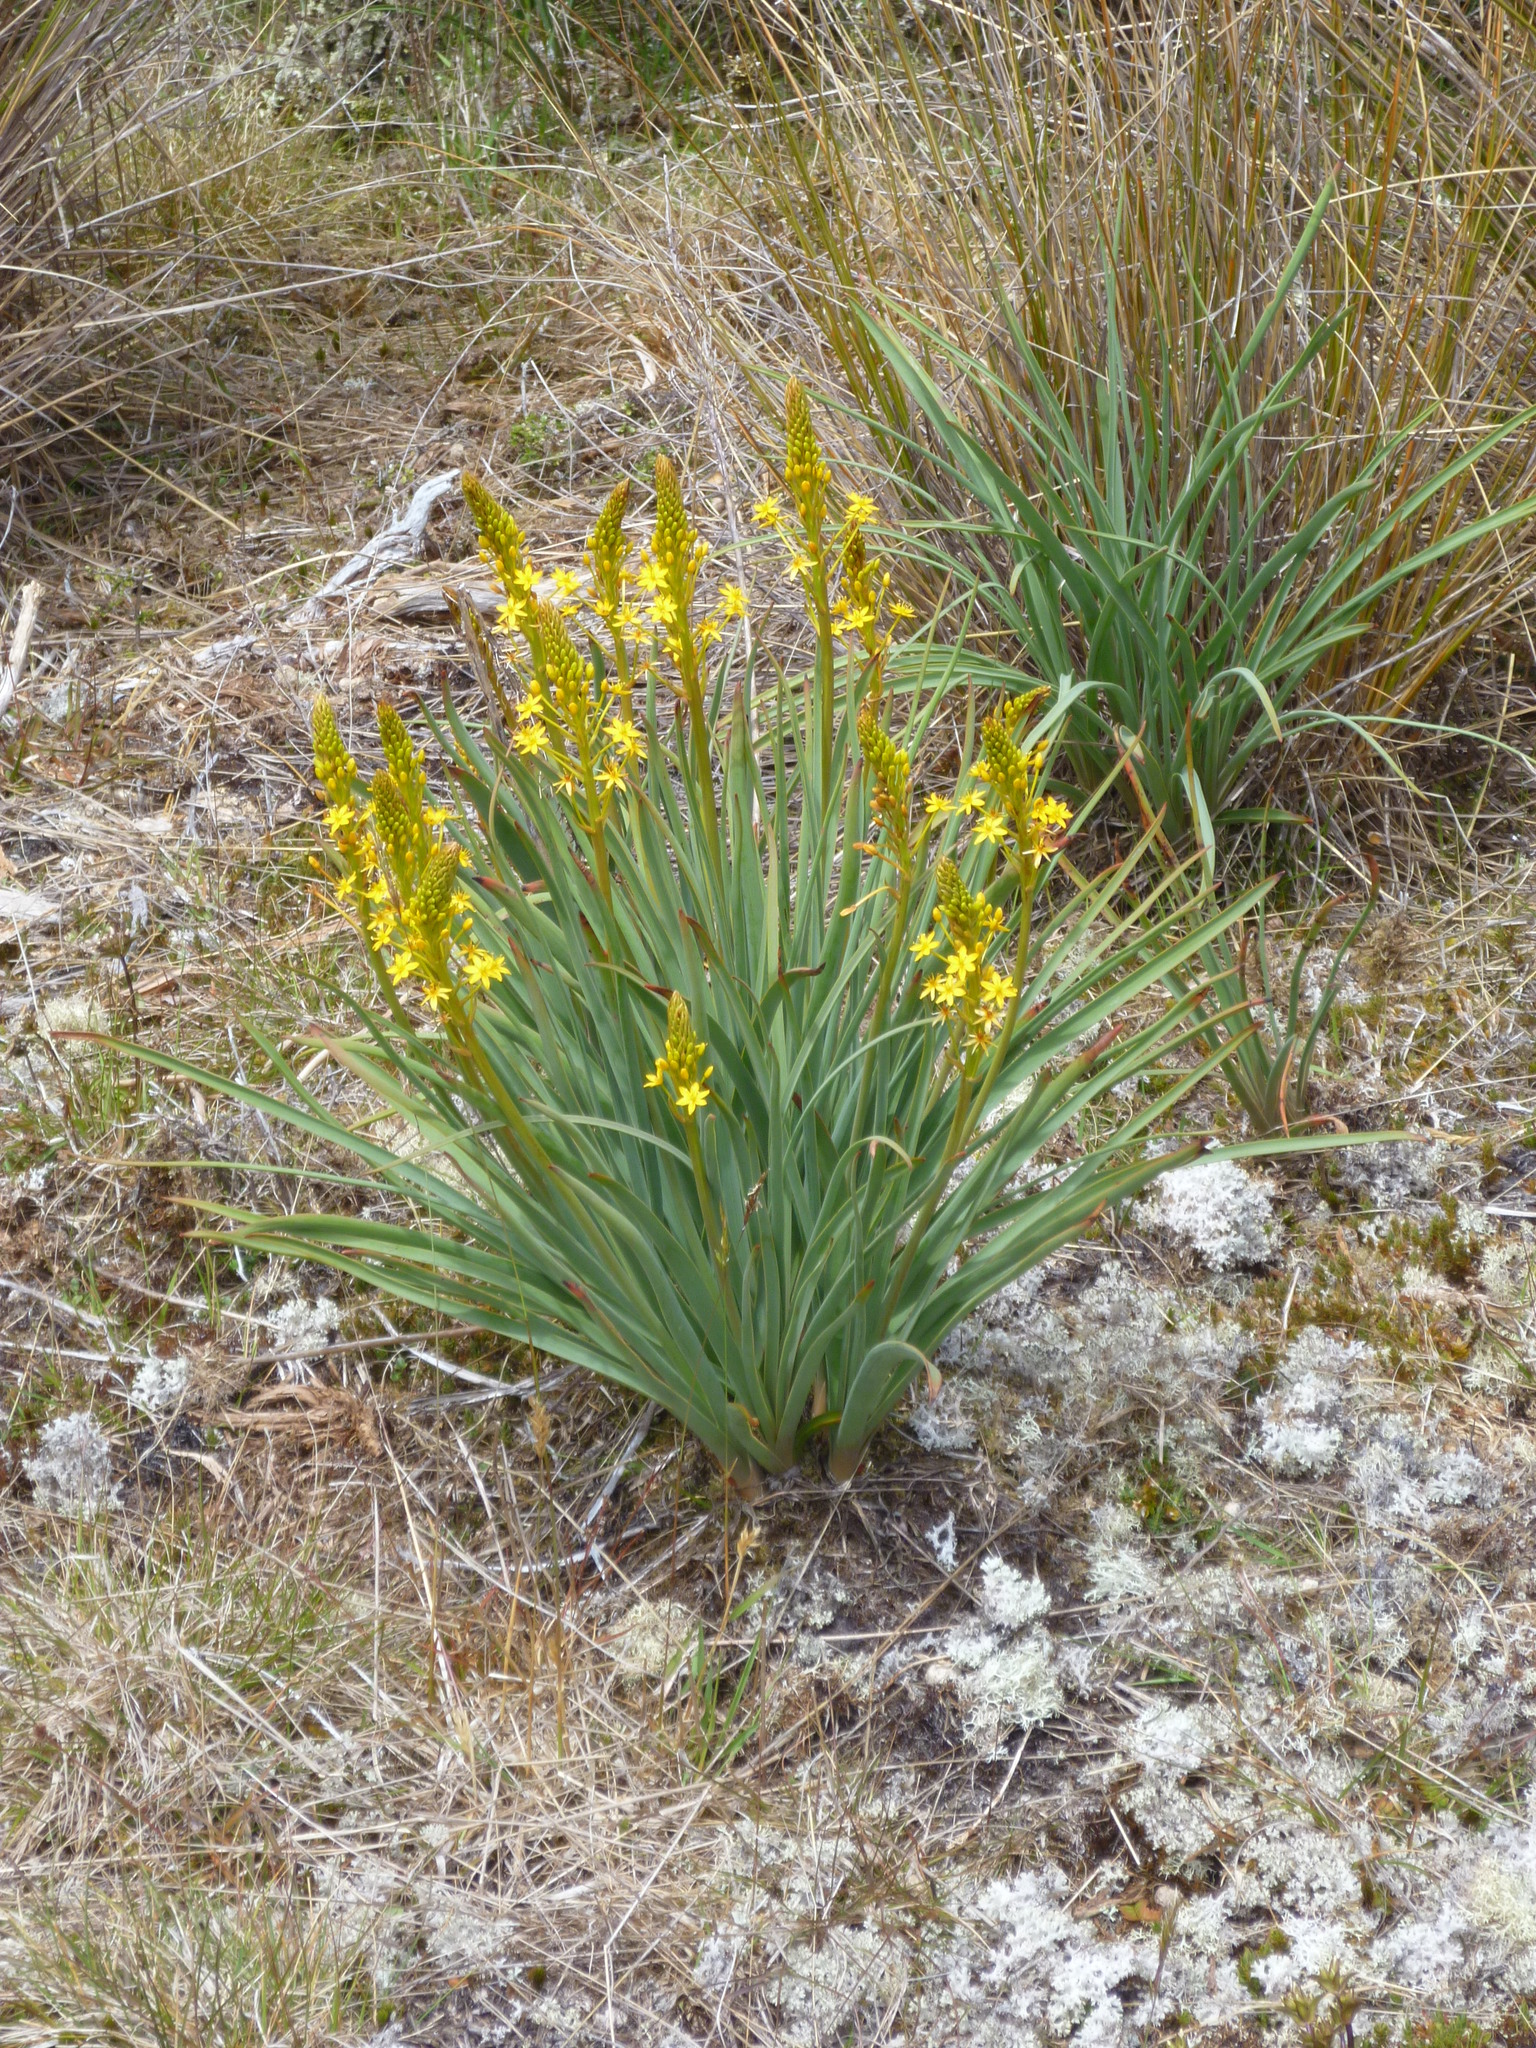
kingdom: Plantae
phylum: Tracheophyta
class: Liliopsida
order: Asparagales
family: Asphodelaceae
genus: Bulbinella
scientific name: Bulbinella hookeri
